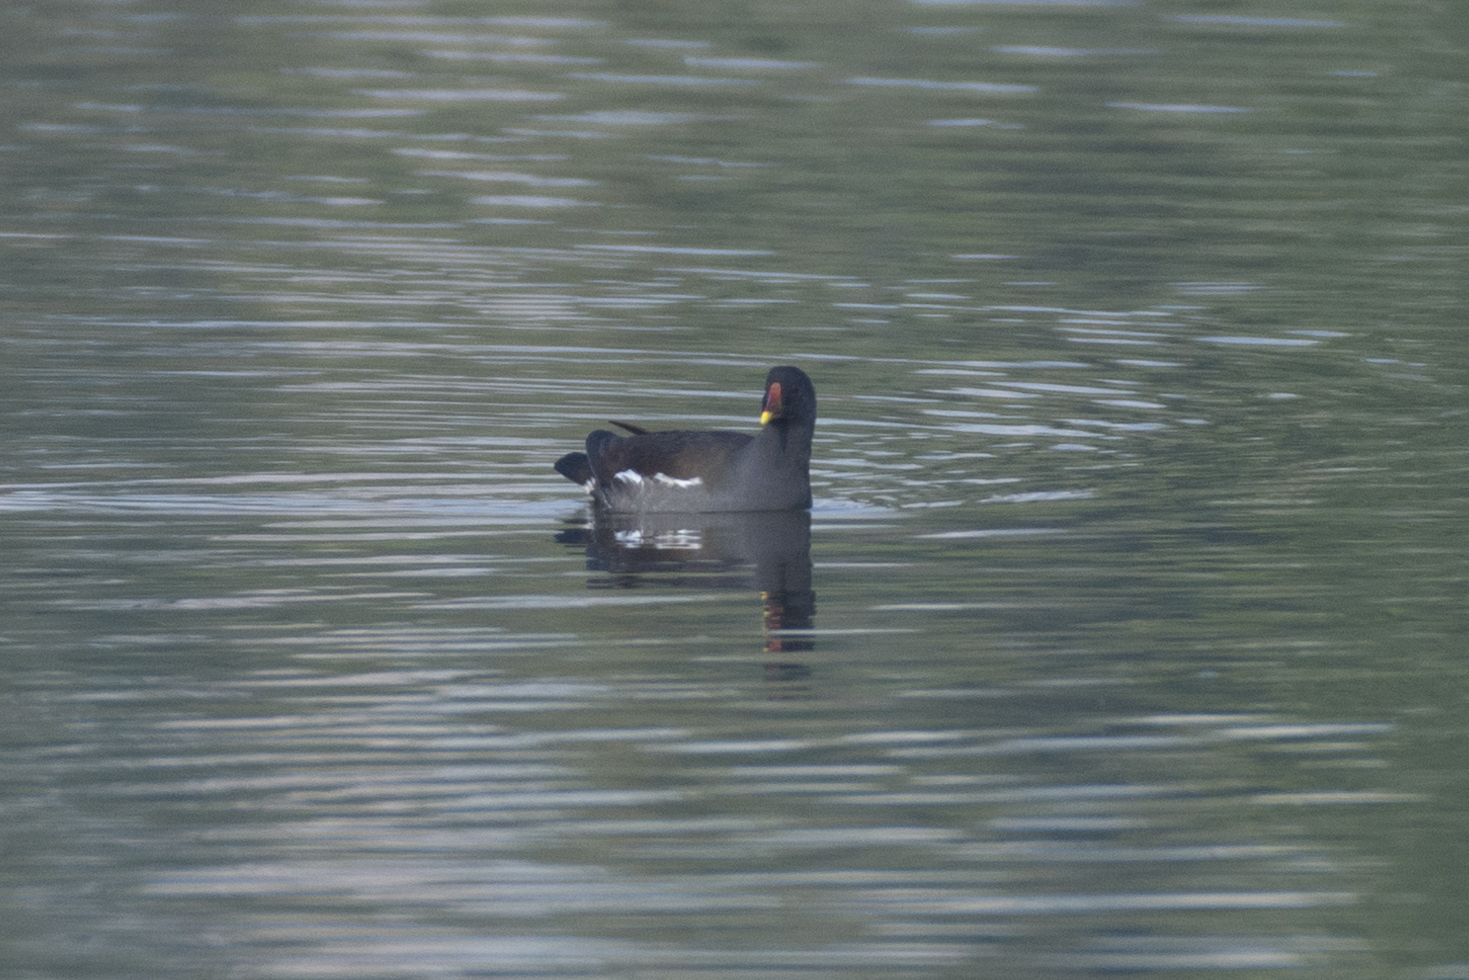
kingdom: Animalia
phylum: Chordata
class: Aves
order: Gruiformes
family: Rallidae
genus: Gallinula
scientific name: Gallinula chloropus
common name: Common moorhen
